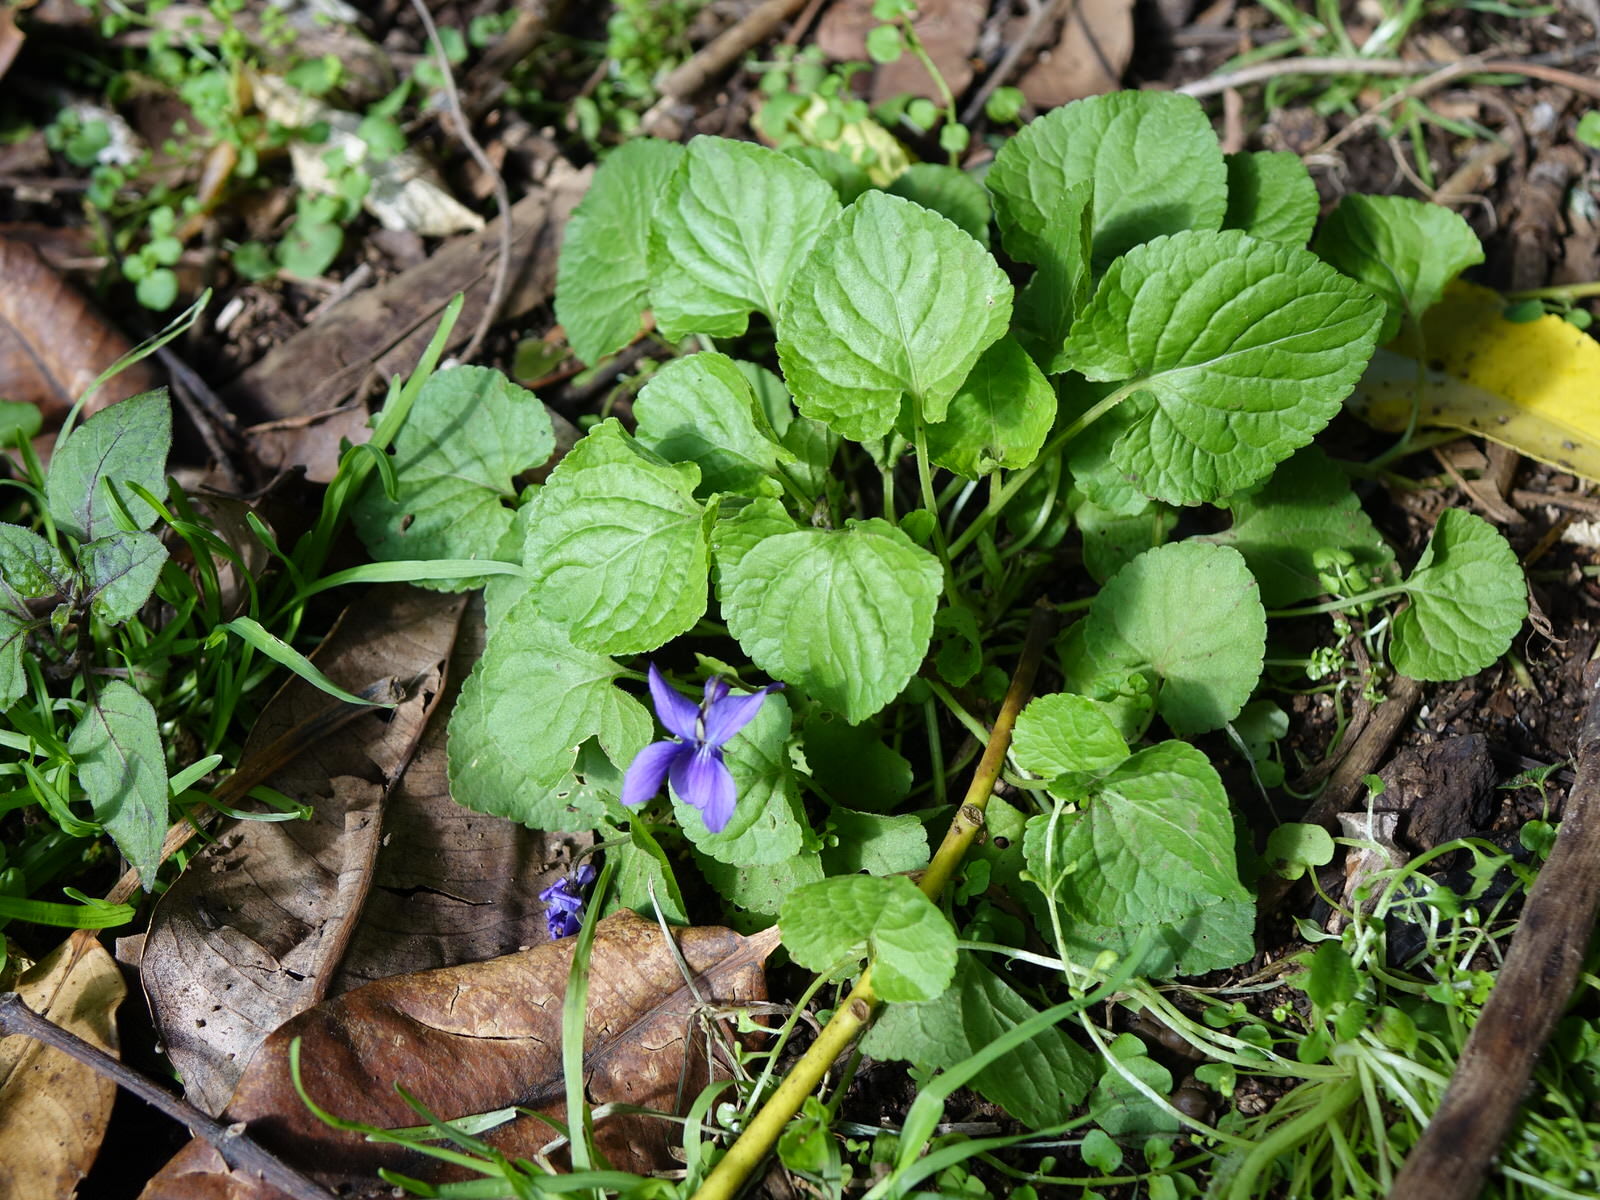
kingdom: Plantae
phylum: Tracheophyta
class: Magnoliopsida
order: Malpighiales
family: Violaceae
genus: Viola
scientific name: Viola odorata
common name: Sweet violet
